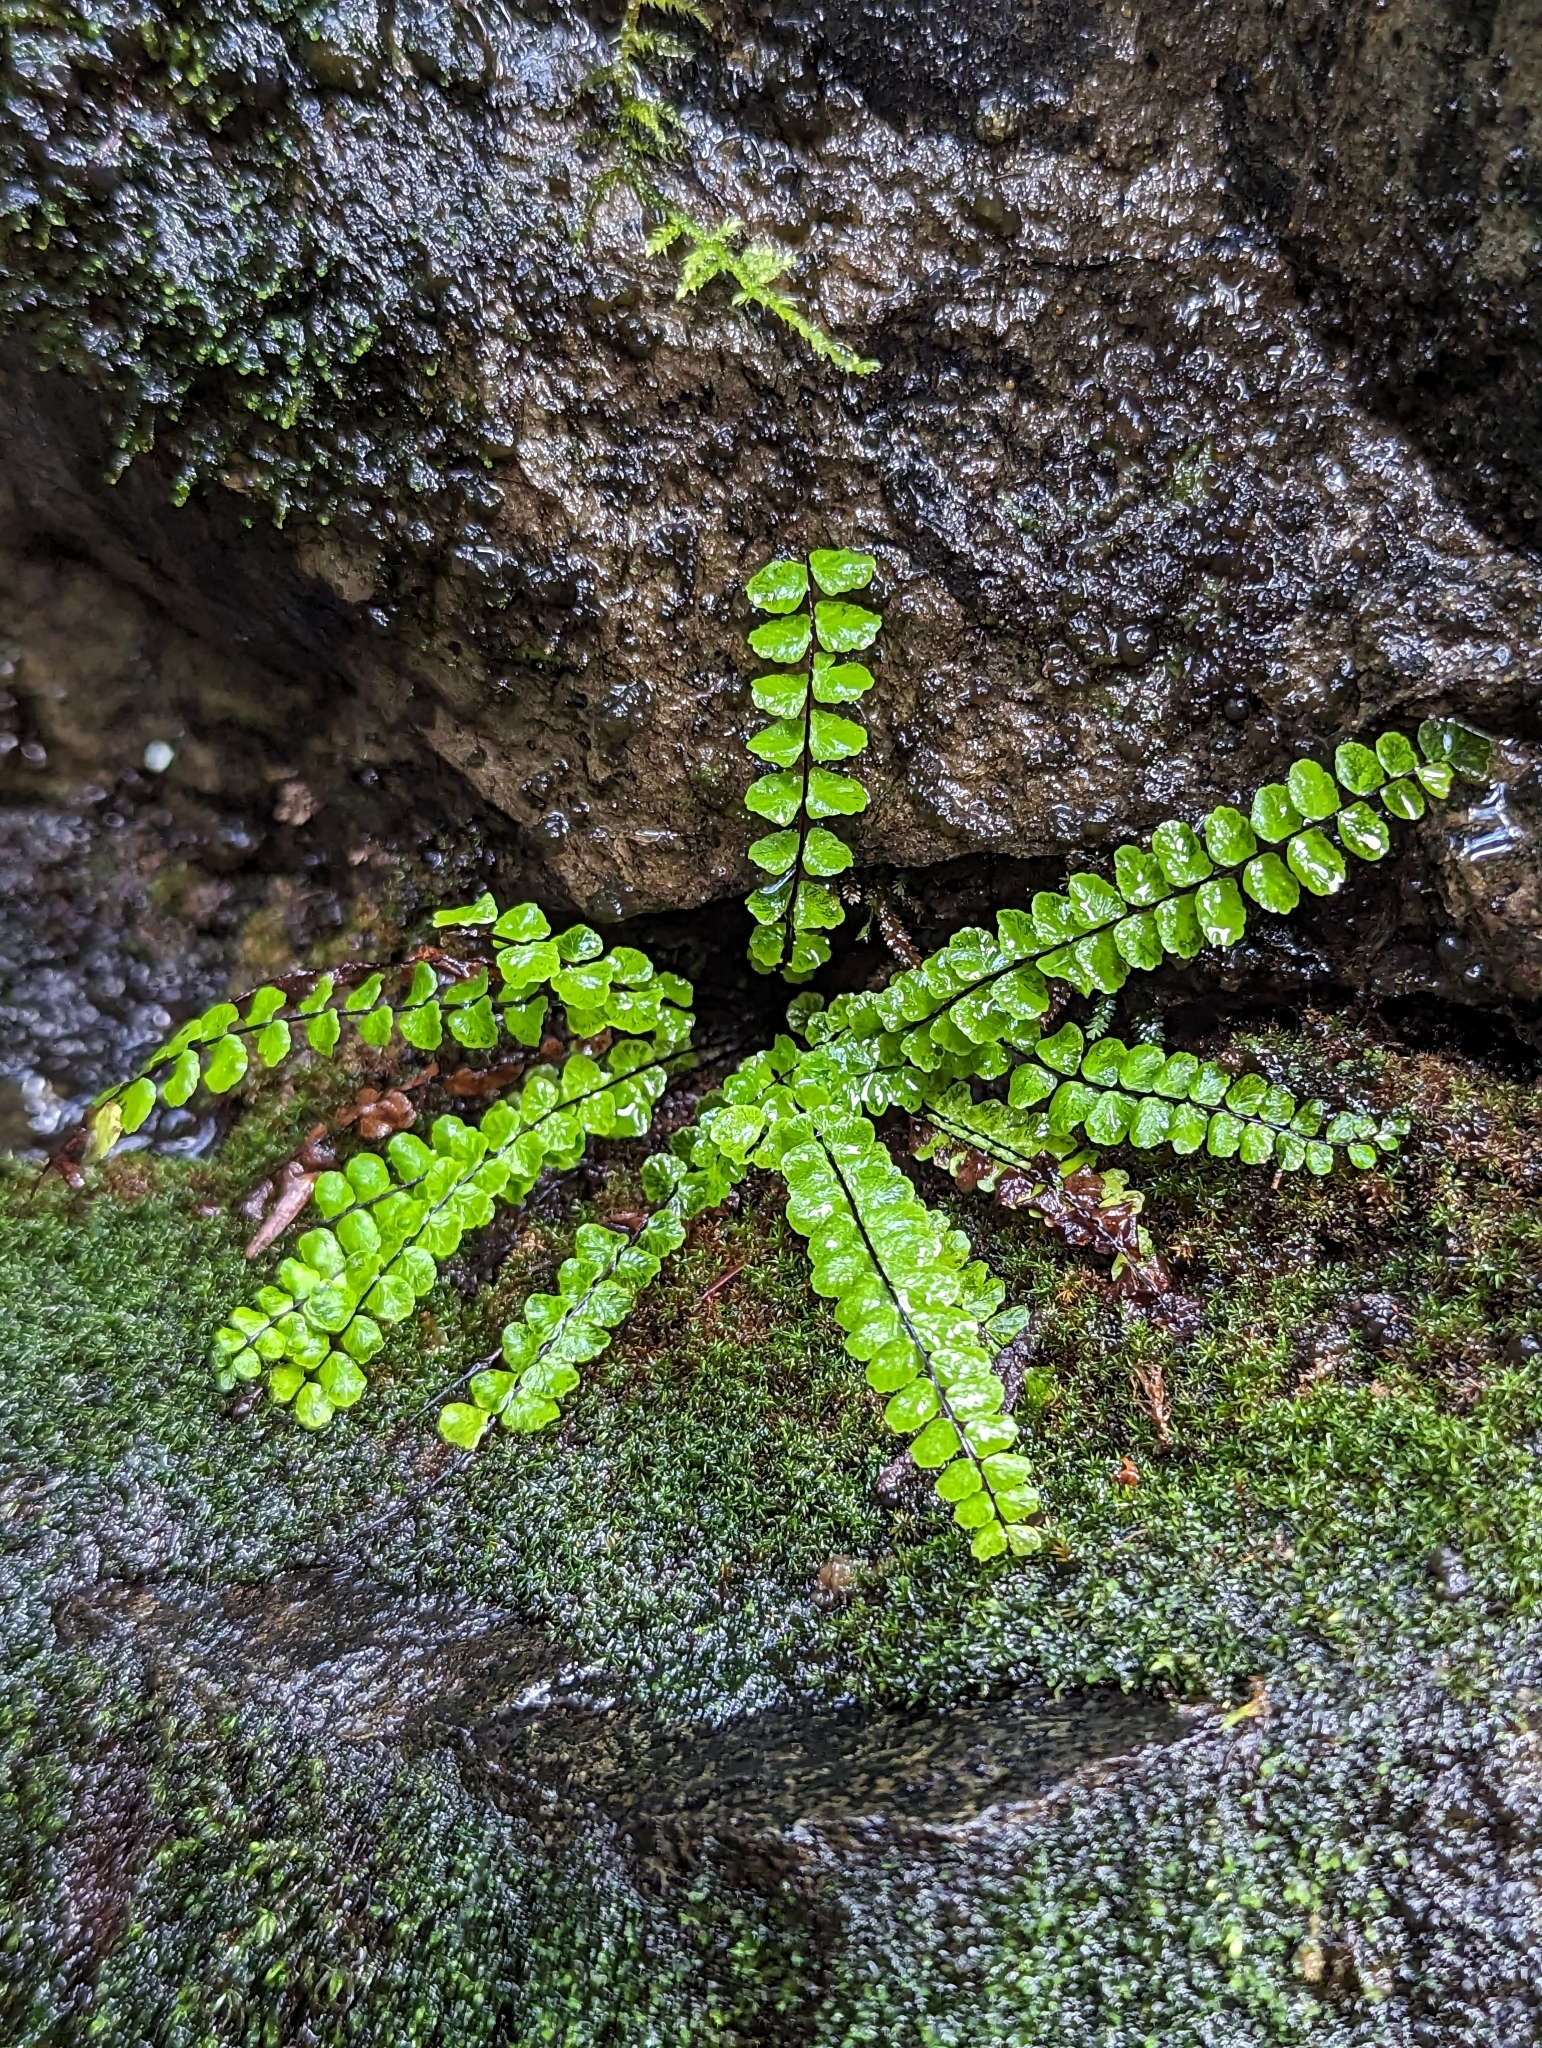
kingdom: Plantae
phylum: Tracheophyta
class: Polypodiopsida
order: Polypodiales
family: Aspleniaceae
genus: Asplenium
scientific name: Asplenium trichomanes
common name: Maidenhair spleenwort
